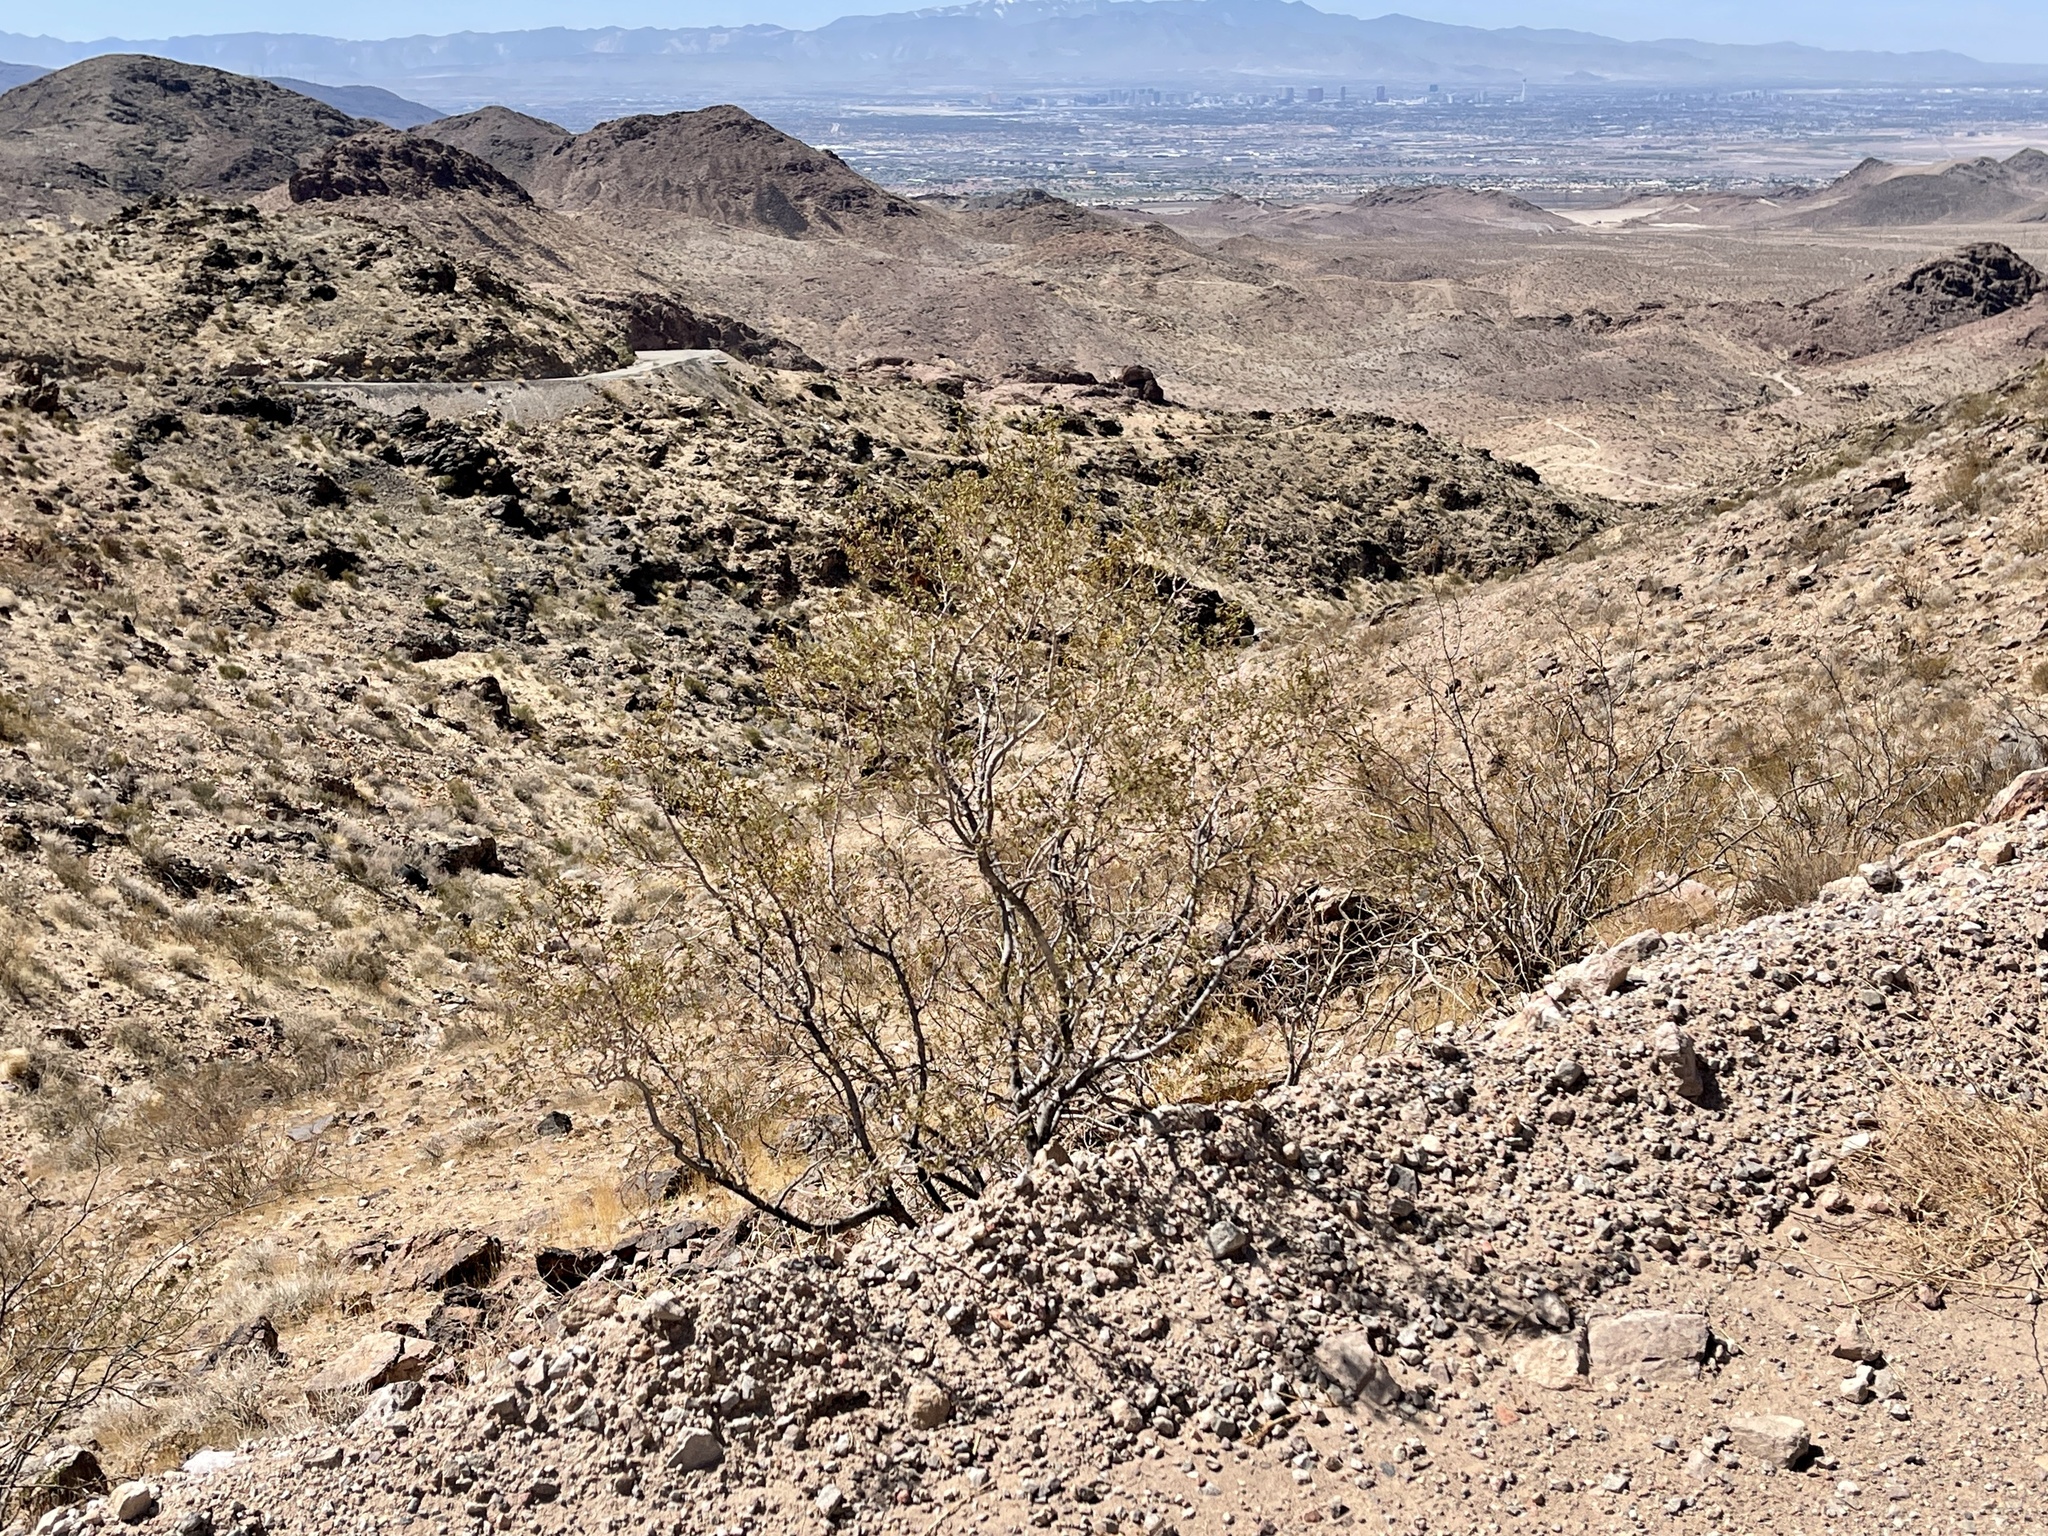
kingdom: Plantae
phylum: Tracheophyta
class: Magnoliopsida
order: Zygophyllales
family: Zygophyllaceae
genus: Larrea
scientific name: Larrea tridentata
